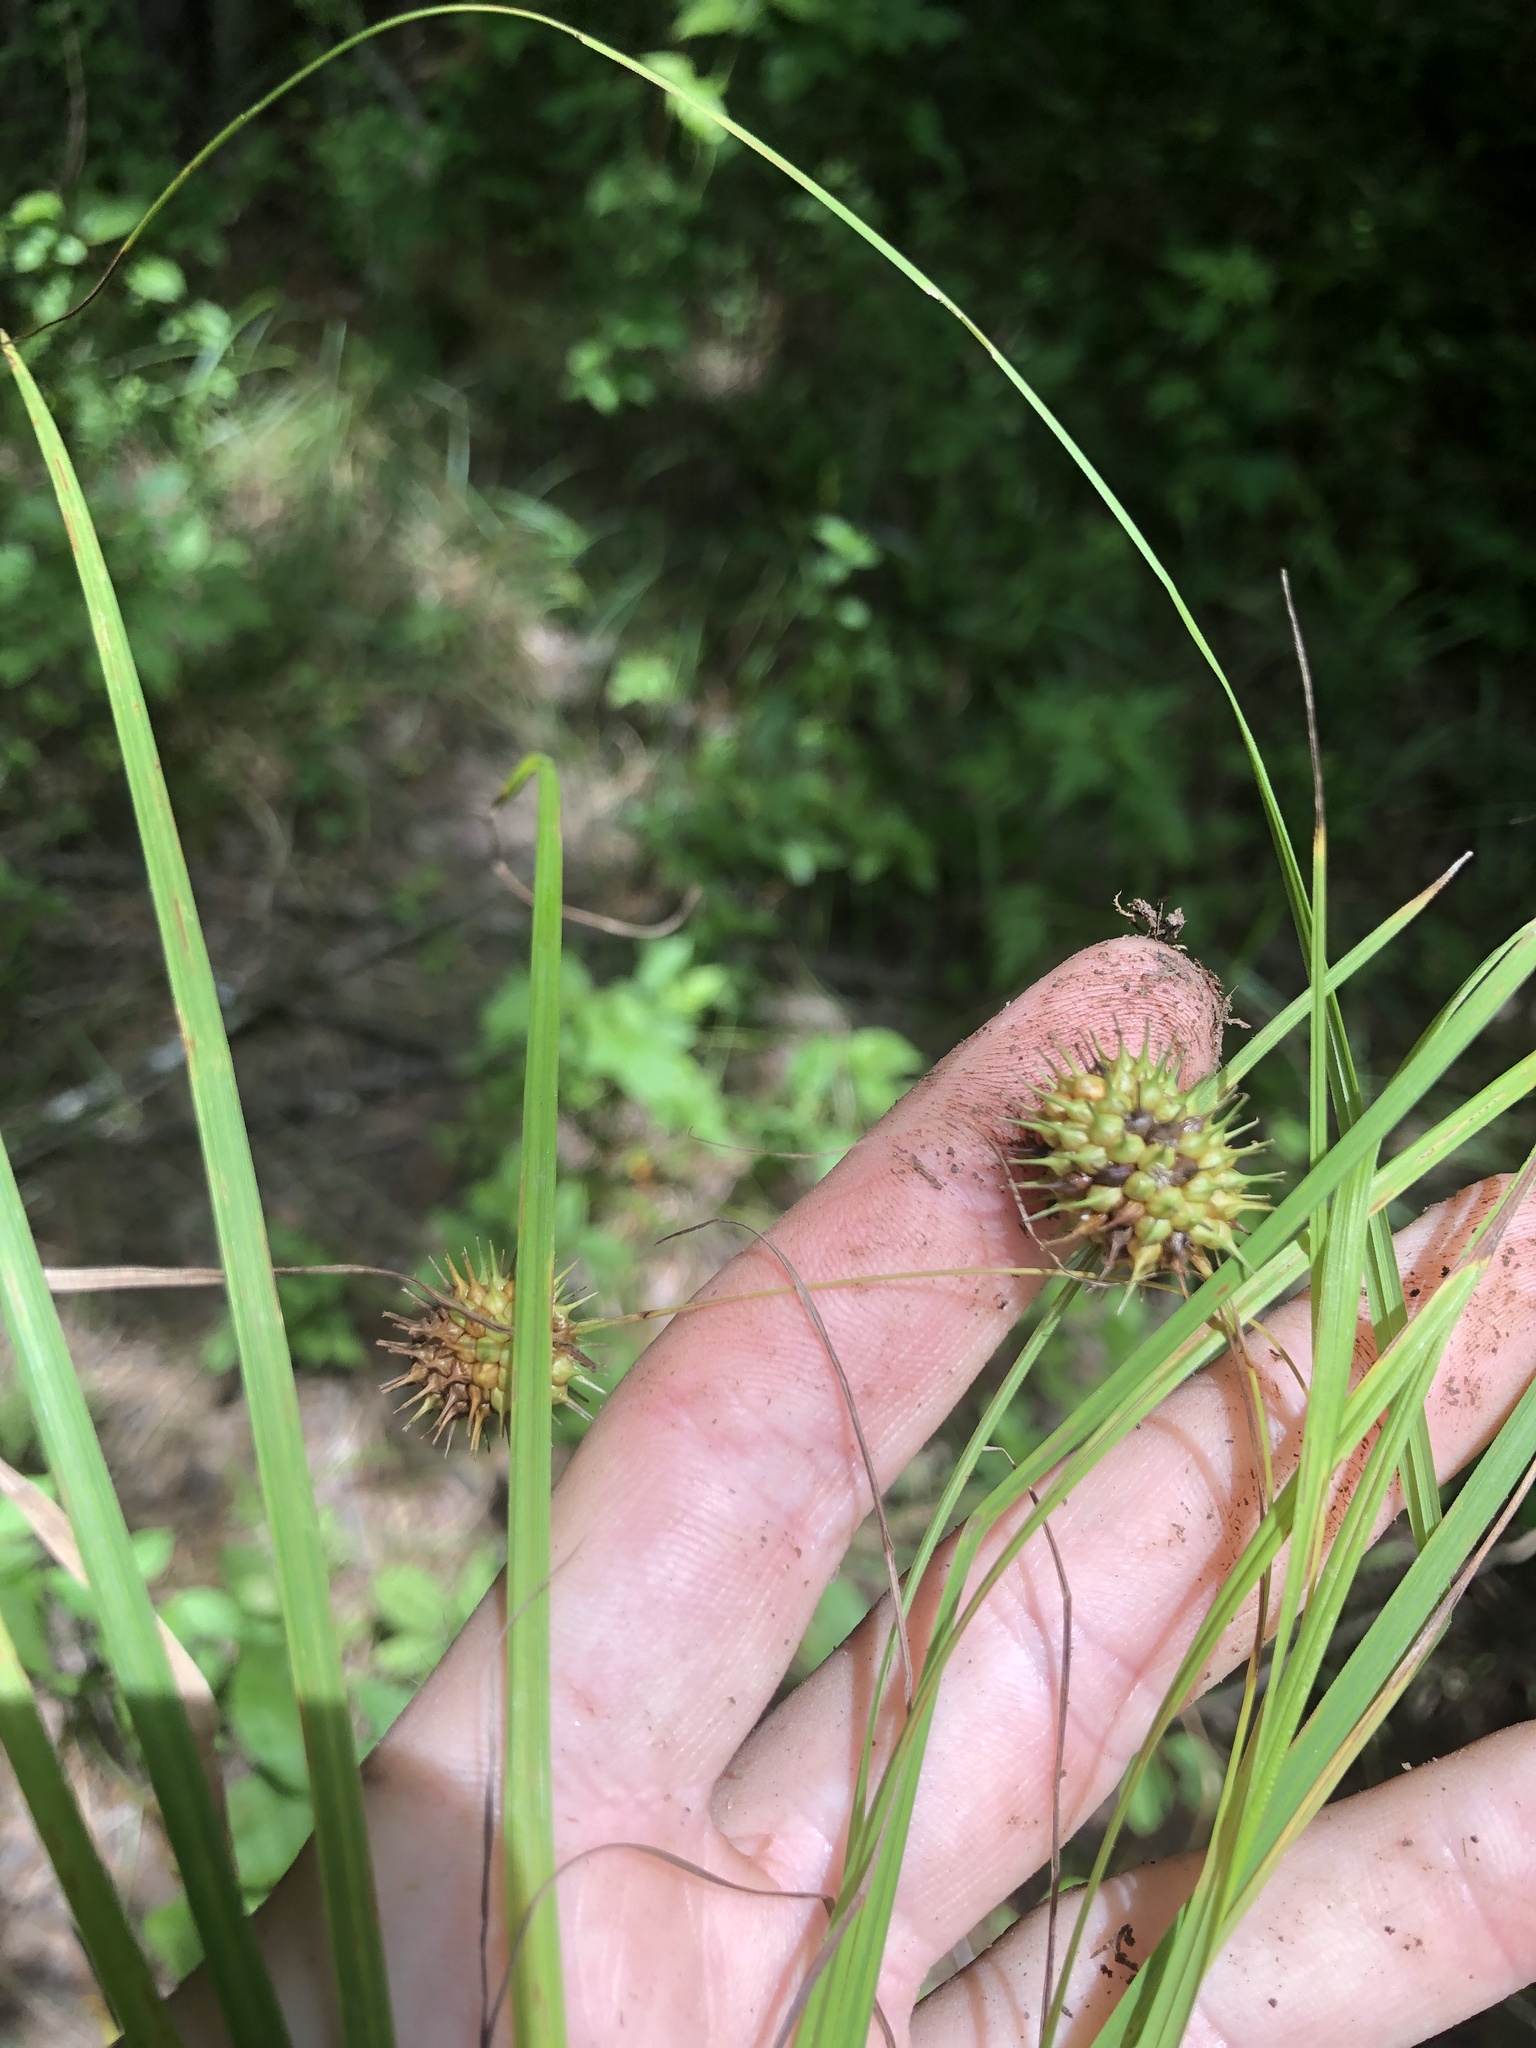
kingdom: Plantae
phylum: Tracheophyta
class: Liliopsida
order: Poales
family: Cyperaceae
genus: Carex
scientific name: Carex squarrosa
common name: Narrow-leaved cattail sedge
